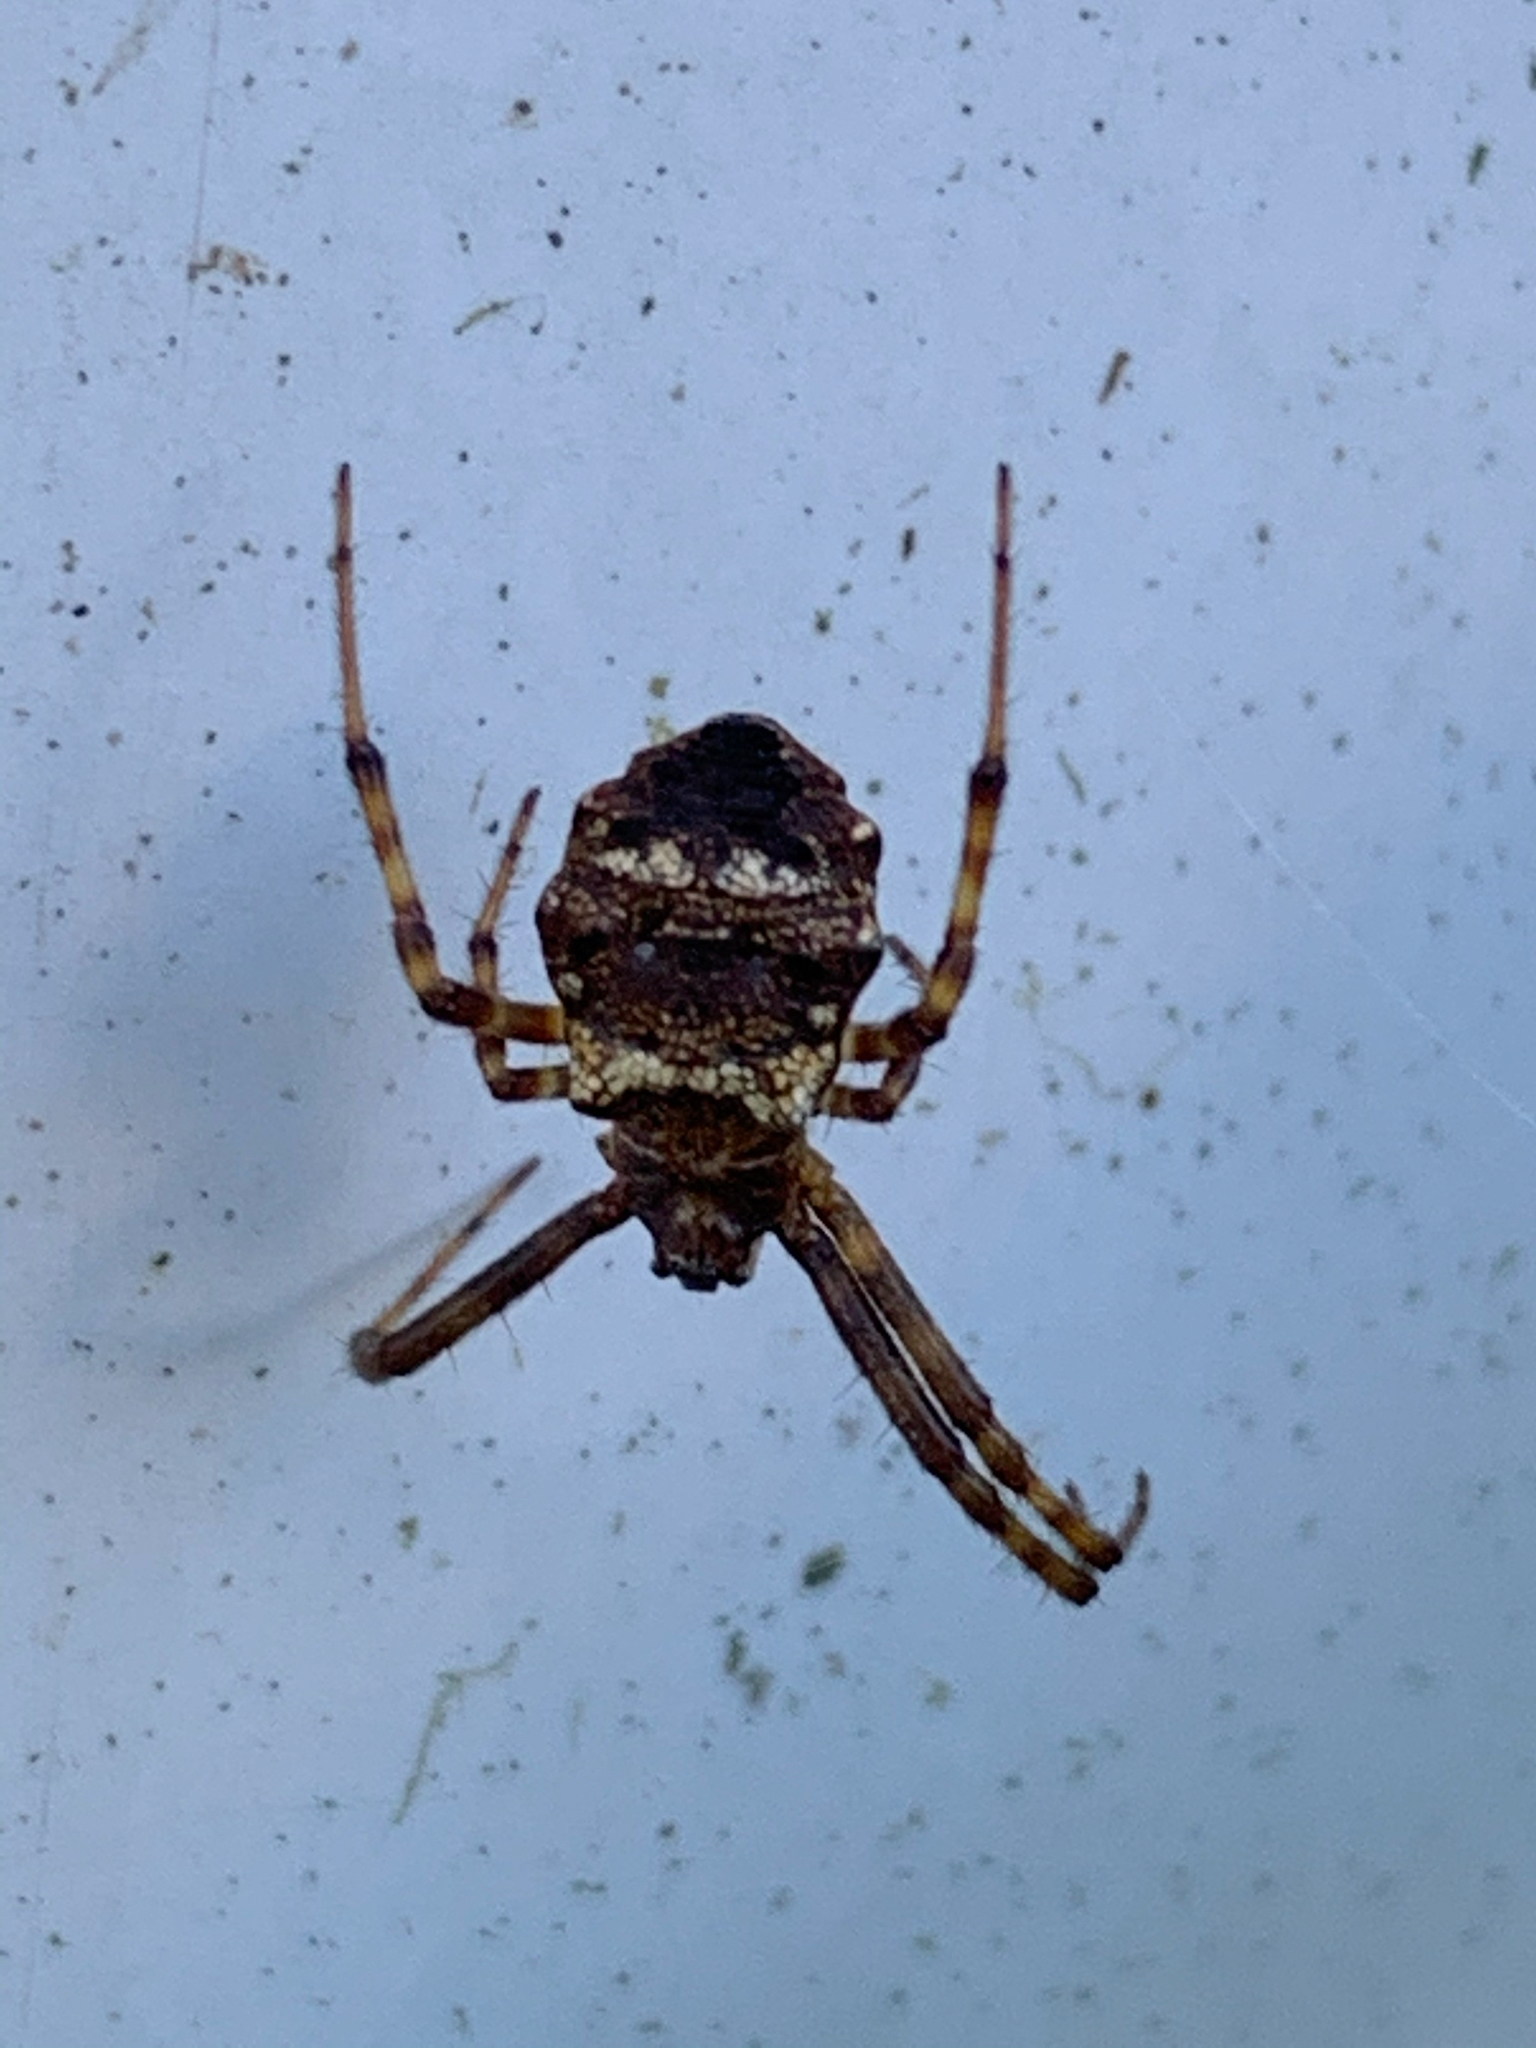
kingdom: Animalia
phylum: Arthropoda
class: Arachnida
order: Araneae
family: Araneidae
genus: Gea
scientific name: Gea heptagon
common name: Orb weavers
